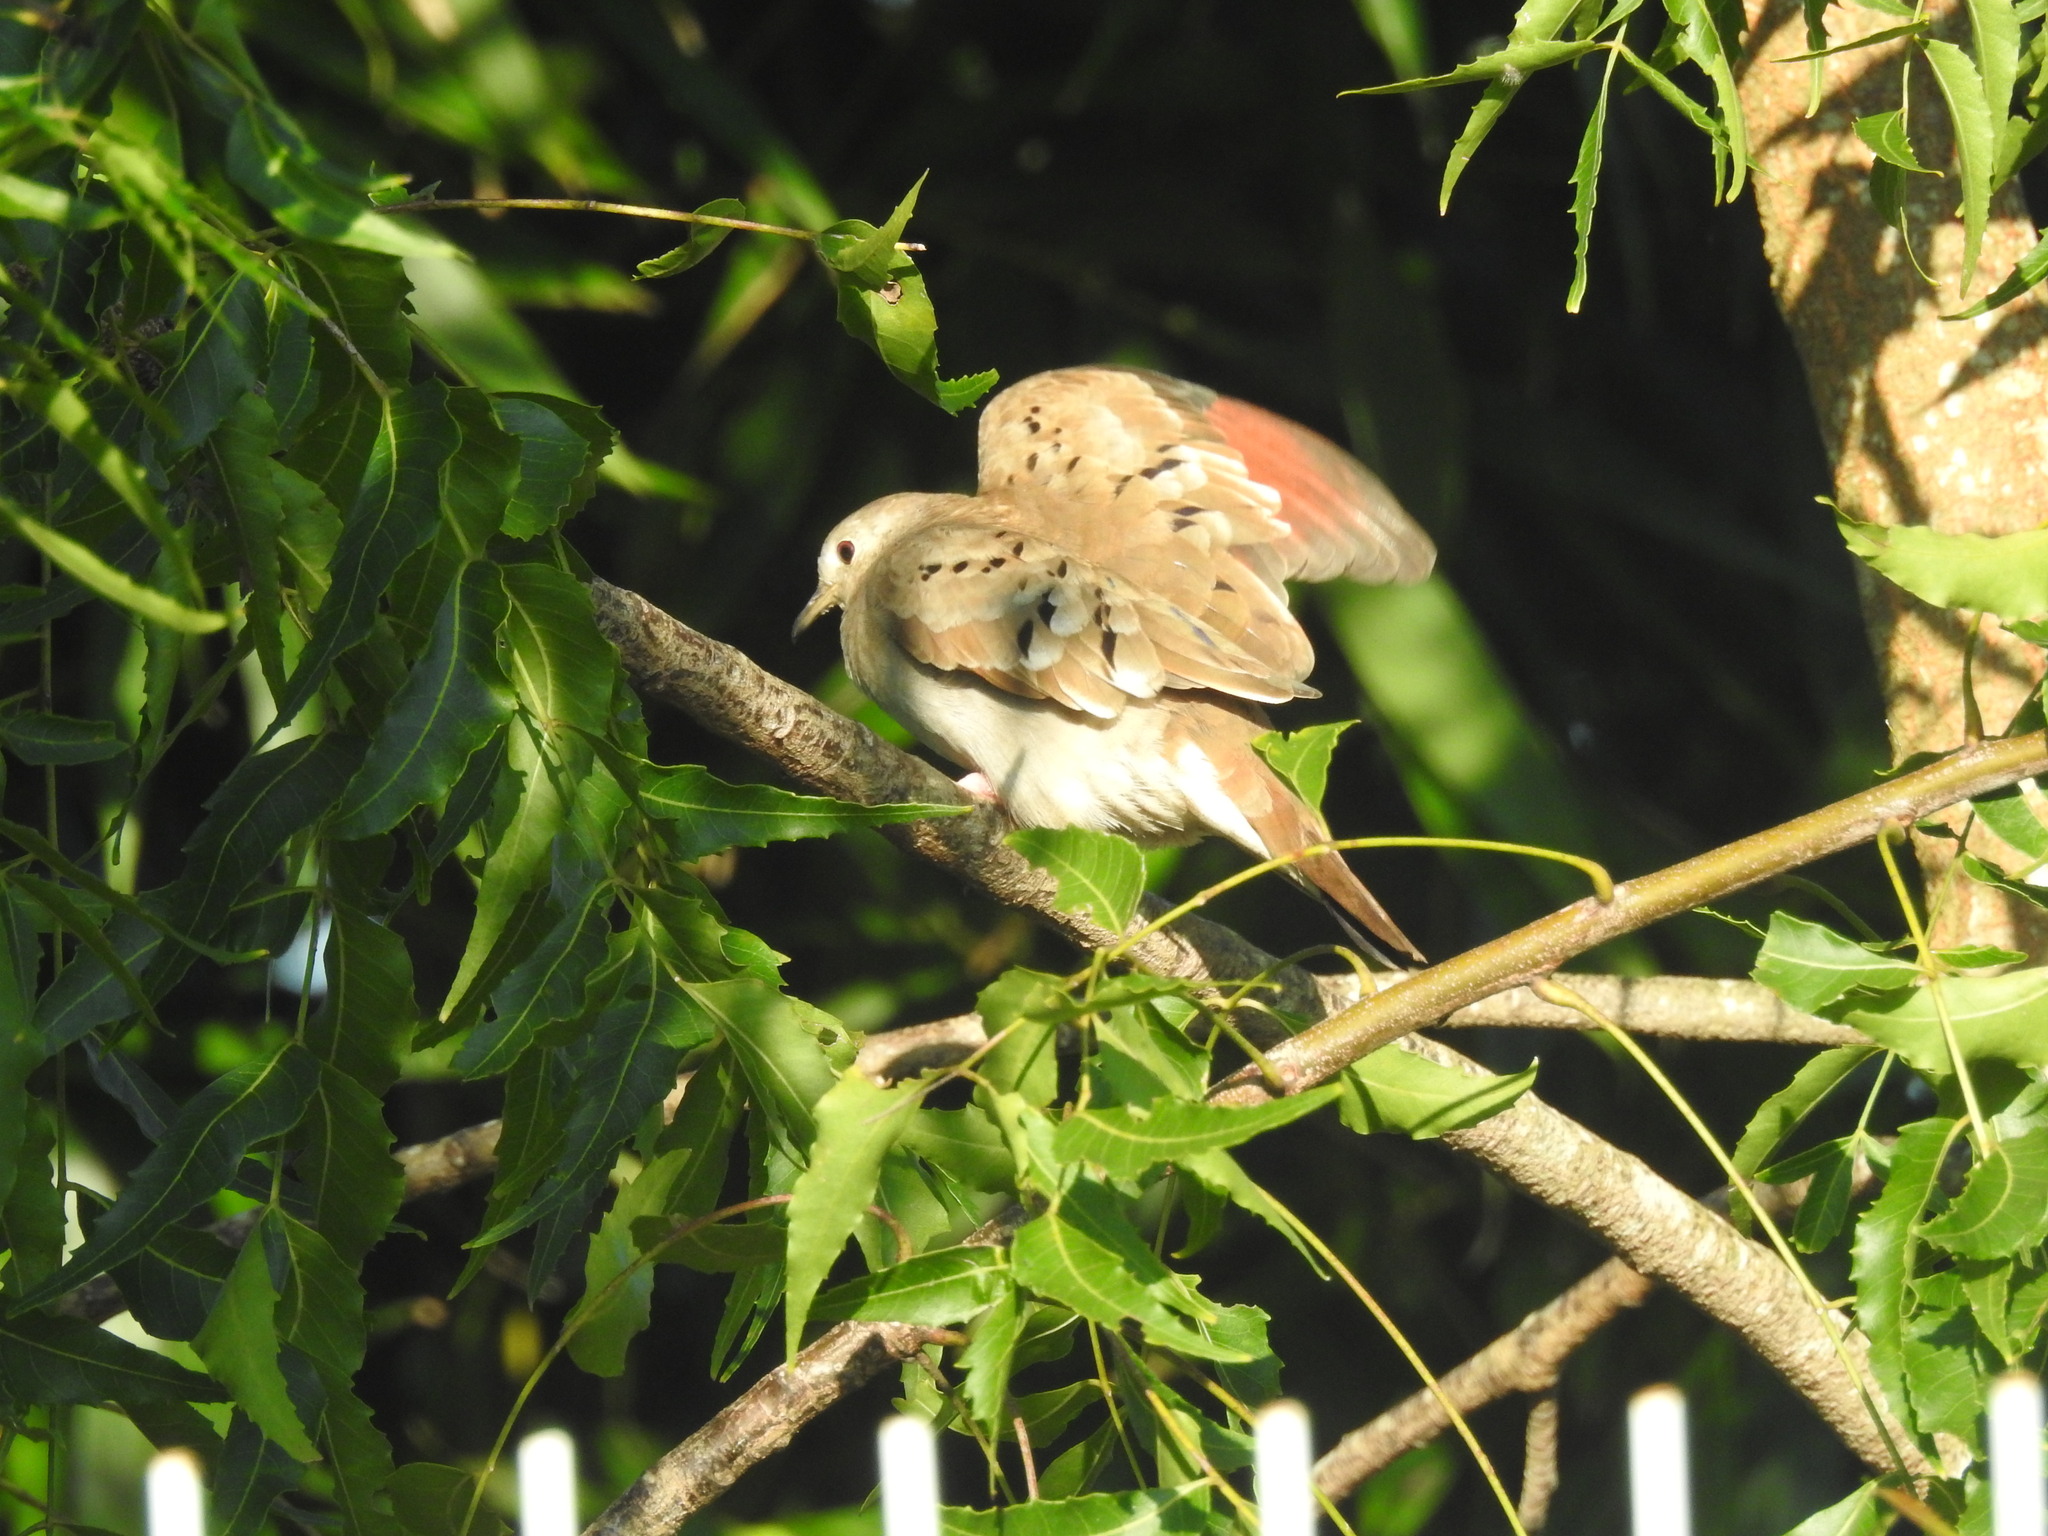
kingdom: Animalia
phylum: Chordata
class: Aves
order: Columbiformes
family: Columbidae
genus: Columbina
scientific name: Columbina talpacoti
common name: Ruddy ground dove
